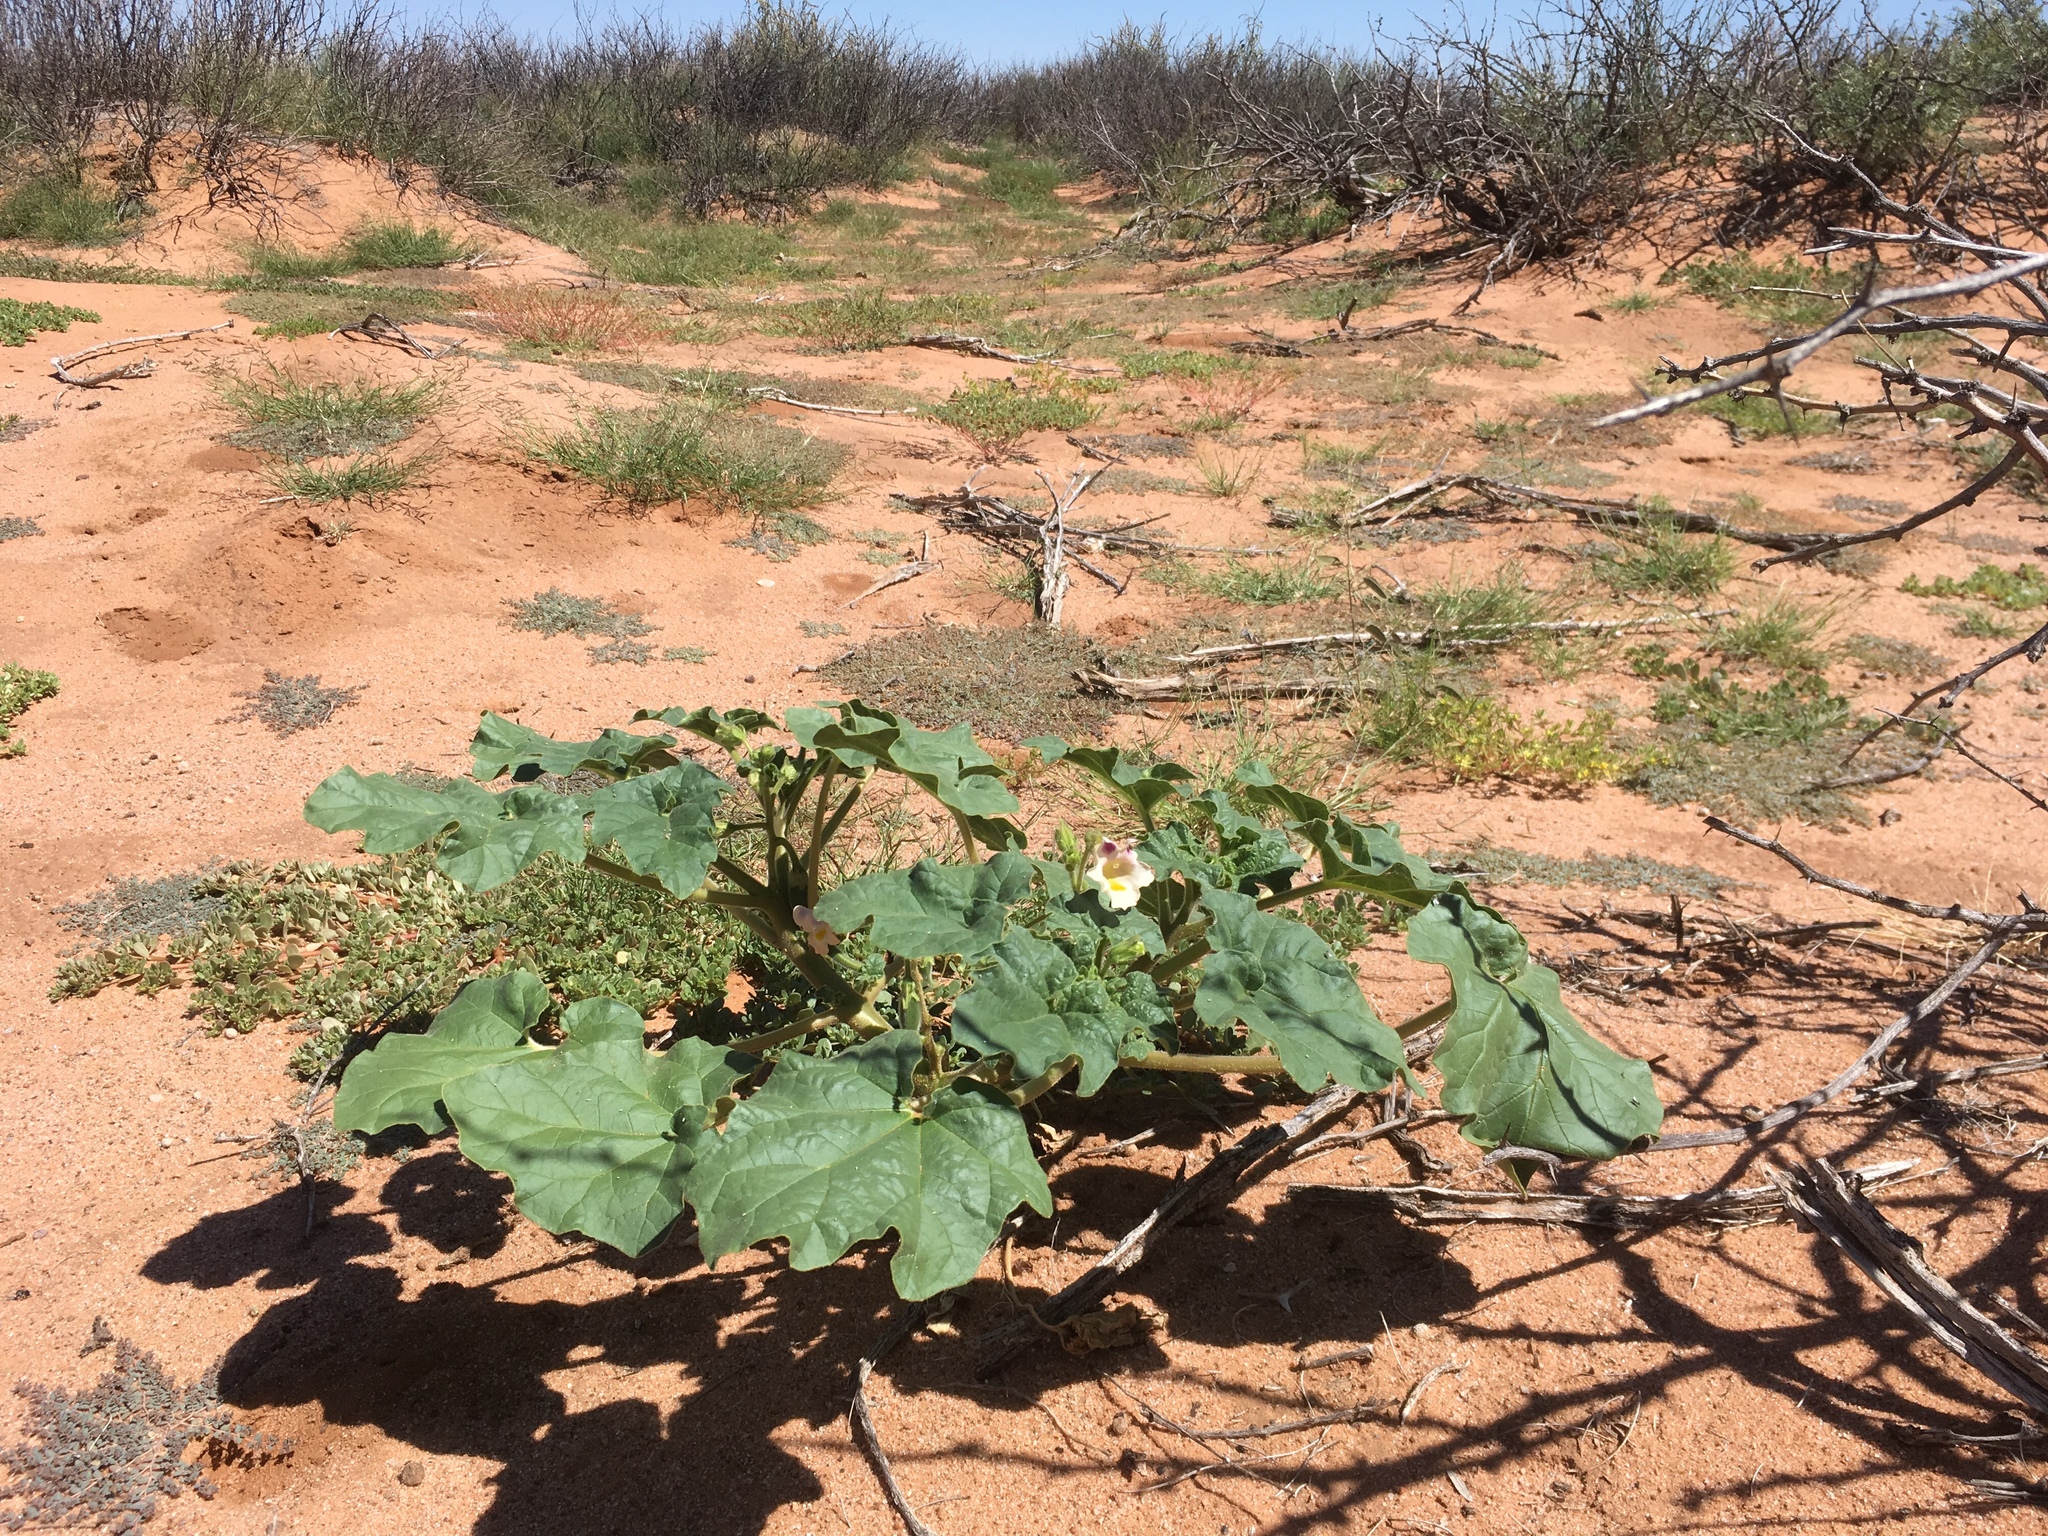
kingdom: Plantae
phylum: Tracheophyta
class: Magnoliopsida
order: Lamiales
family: Martyniaceae
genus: Proboscidea
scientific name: Proboscidea parviflora
